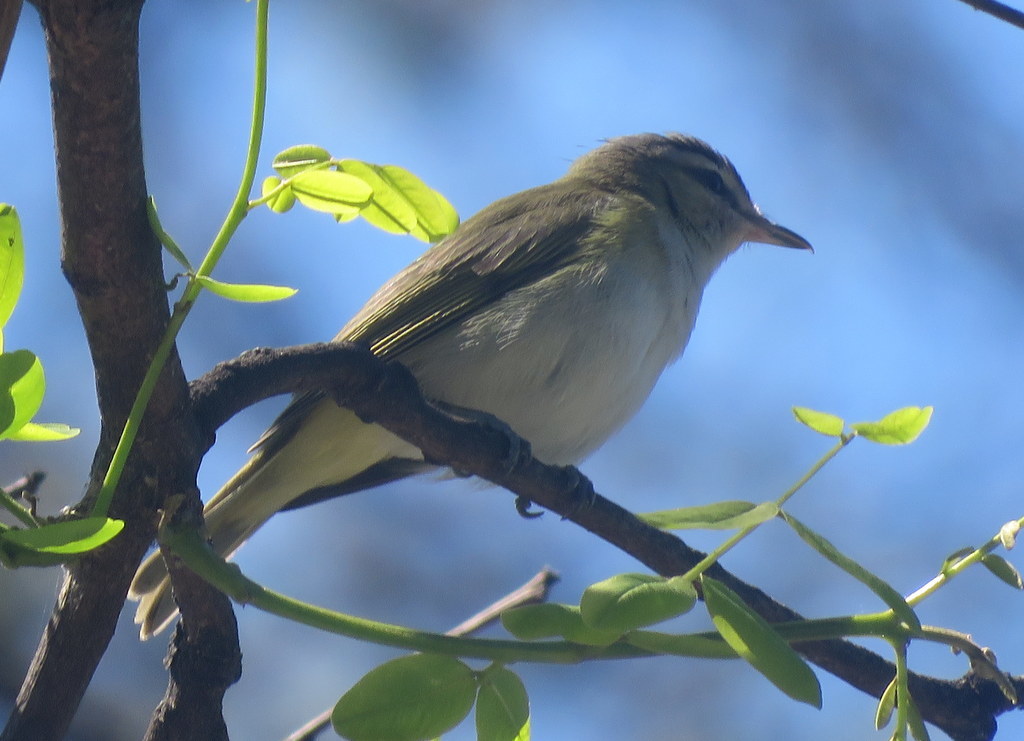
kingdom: Animalia
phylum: Chordata
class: Aves
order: Passeriformes
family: Vireonidae
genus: Vireo
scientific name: Vireo olivaceus
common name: Red-eyed vireo
